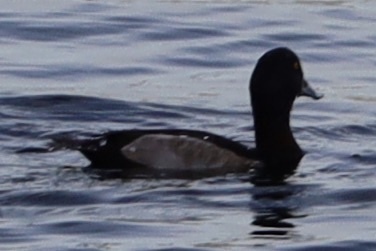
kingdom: Animalia
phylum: Chordata
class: Aves
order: Anseriformes
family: Anatidae
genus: Aythya
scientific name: Aythya collaris
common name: Ring-necked duck
